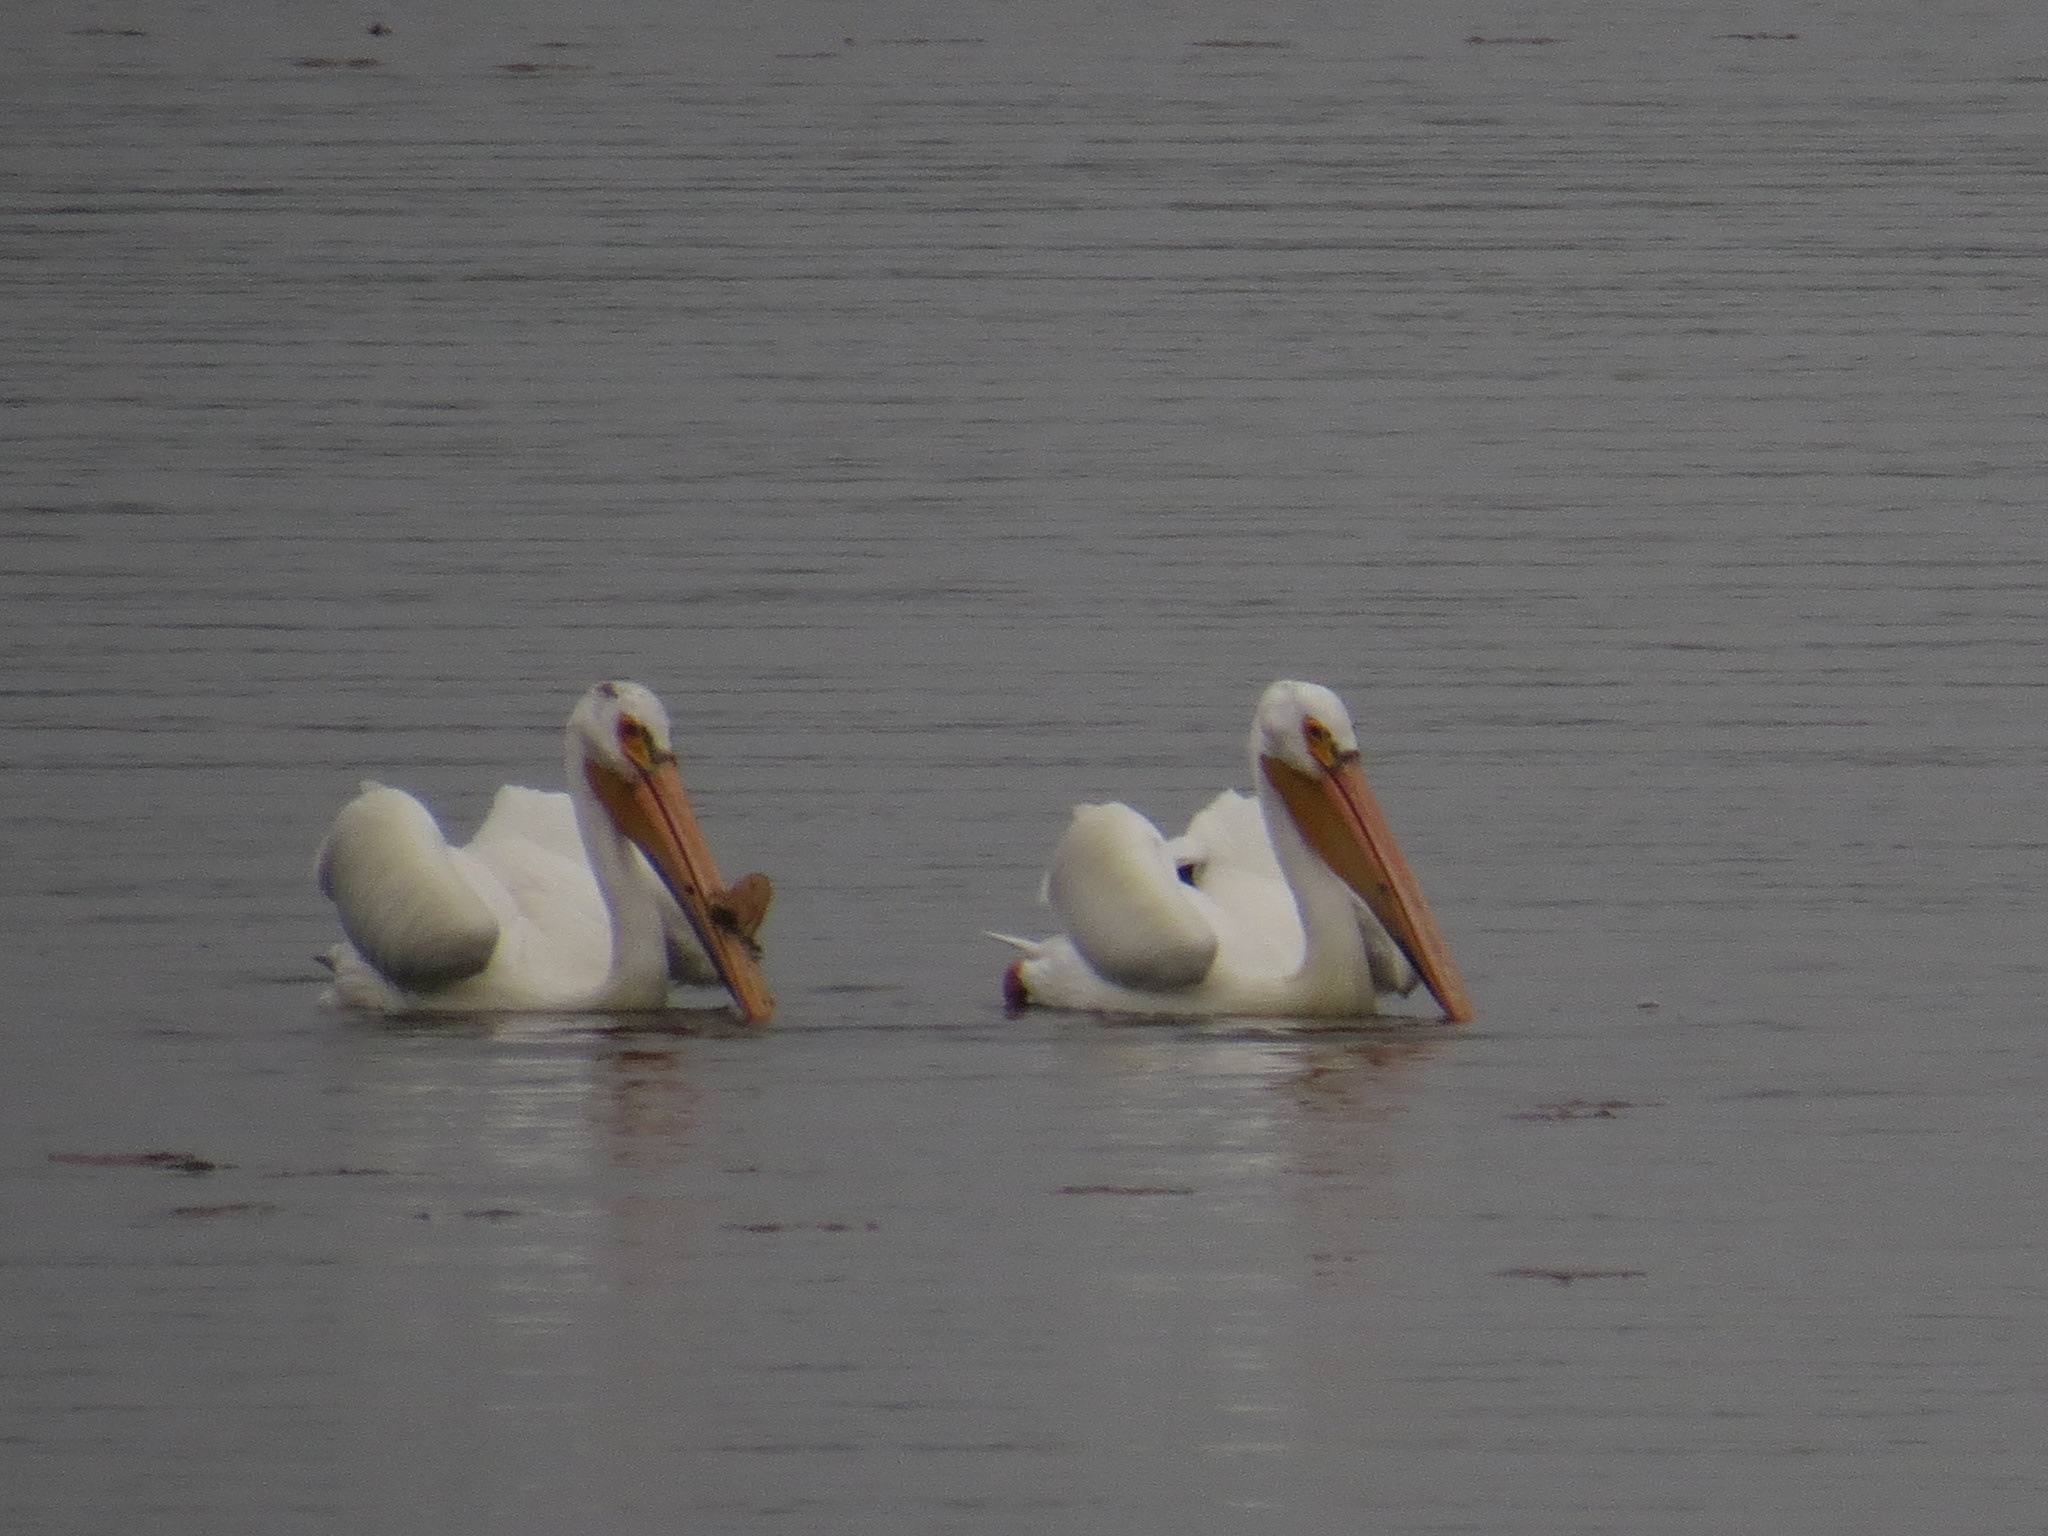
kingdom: Animalia
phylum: Chordata
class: Aves
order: Pelecaniformes
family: Pelecanidae
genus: Pelecanus
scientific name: Pelecanus erythrorhynchos
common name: American white pelican
